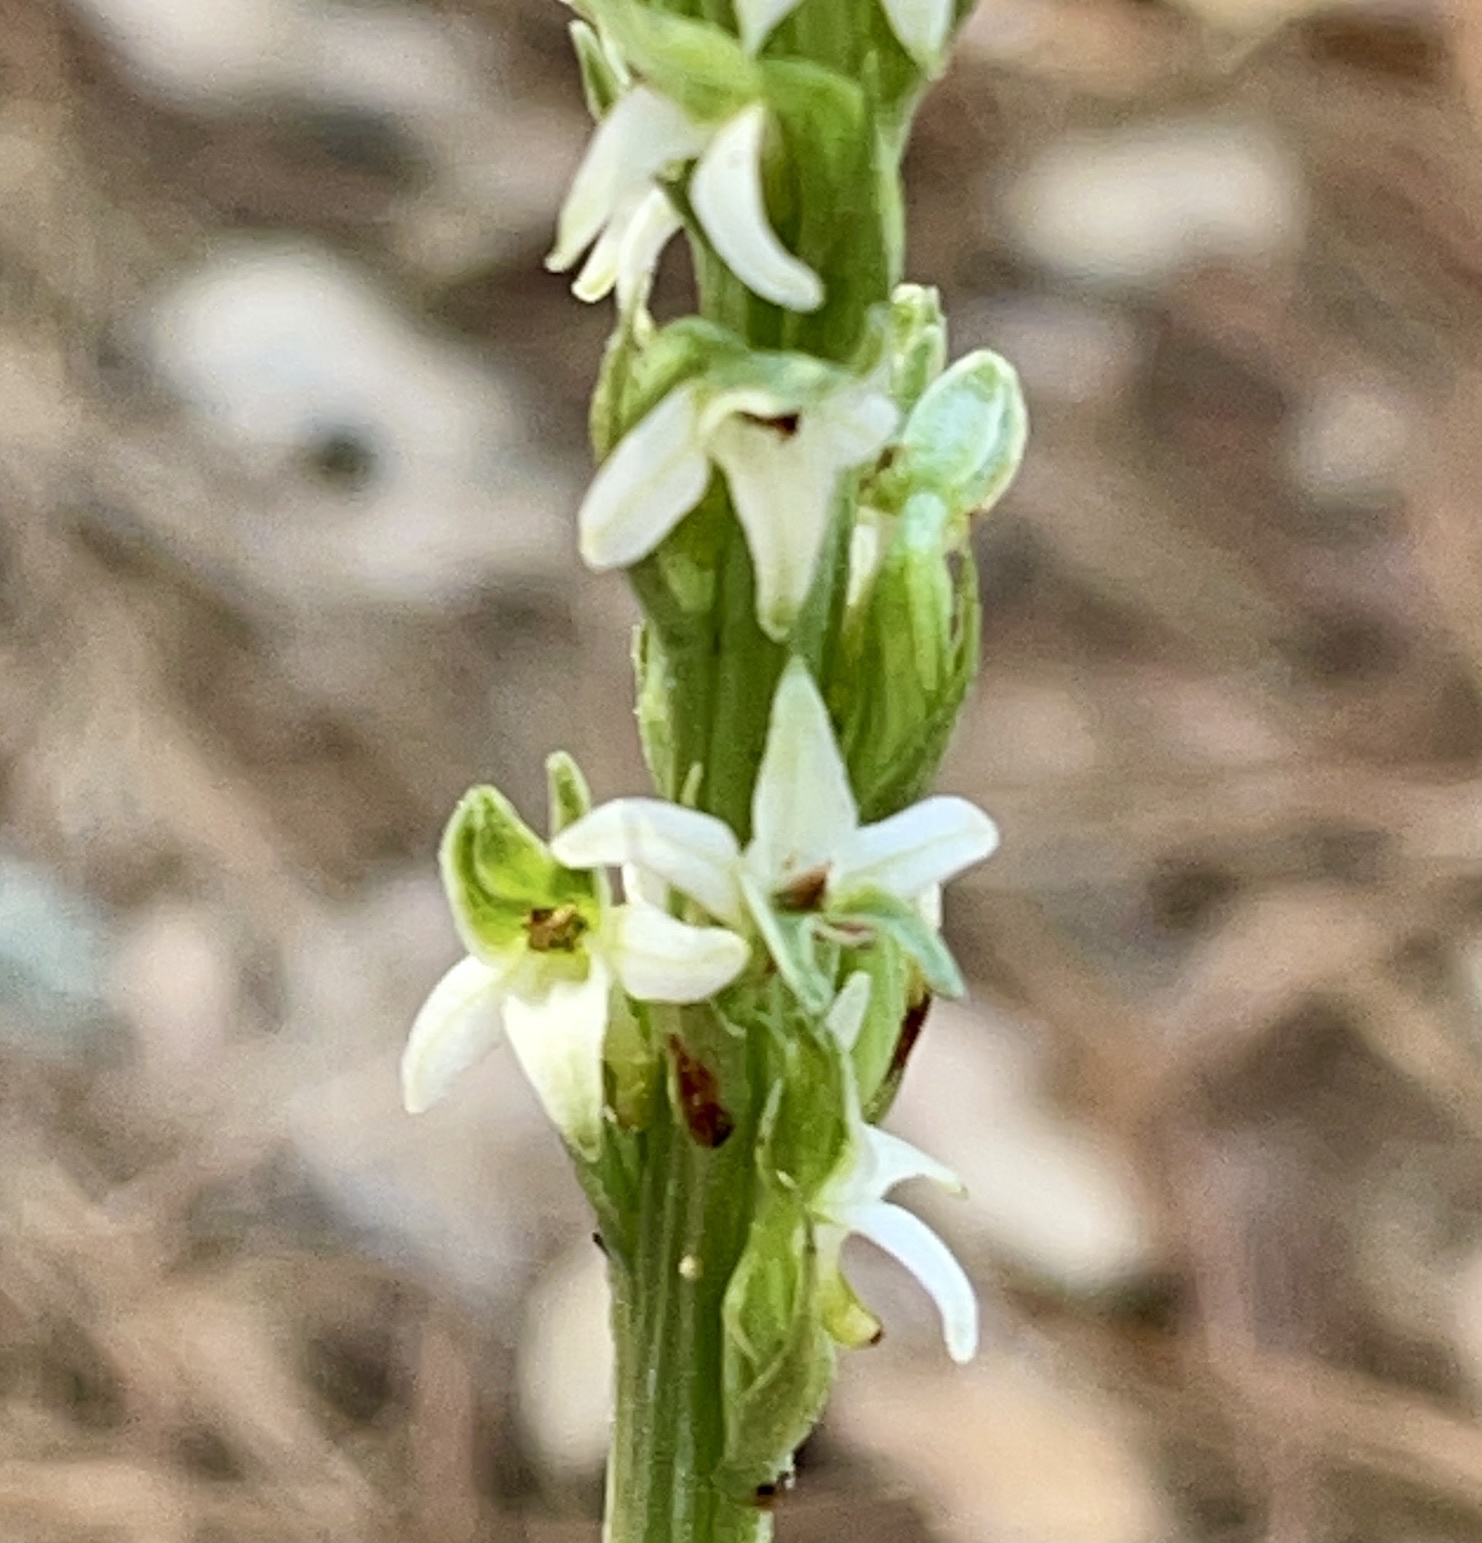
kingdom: Plantae
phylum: Tracheophyta
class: Liliopsida
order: Asparagales
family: Orchidaceae
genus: Platanthera
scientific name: Platanthera yadonii
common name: Yadon’s piperia
